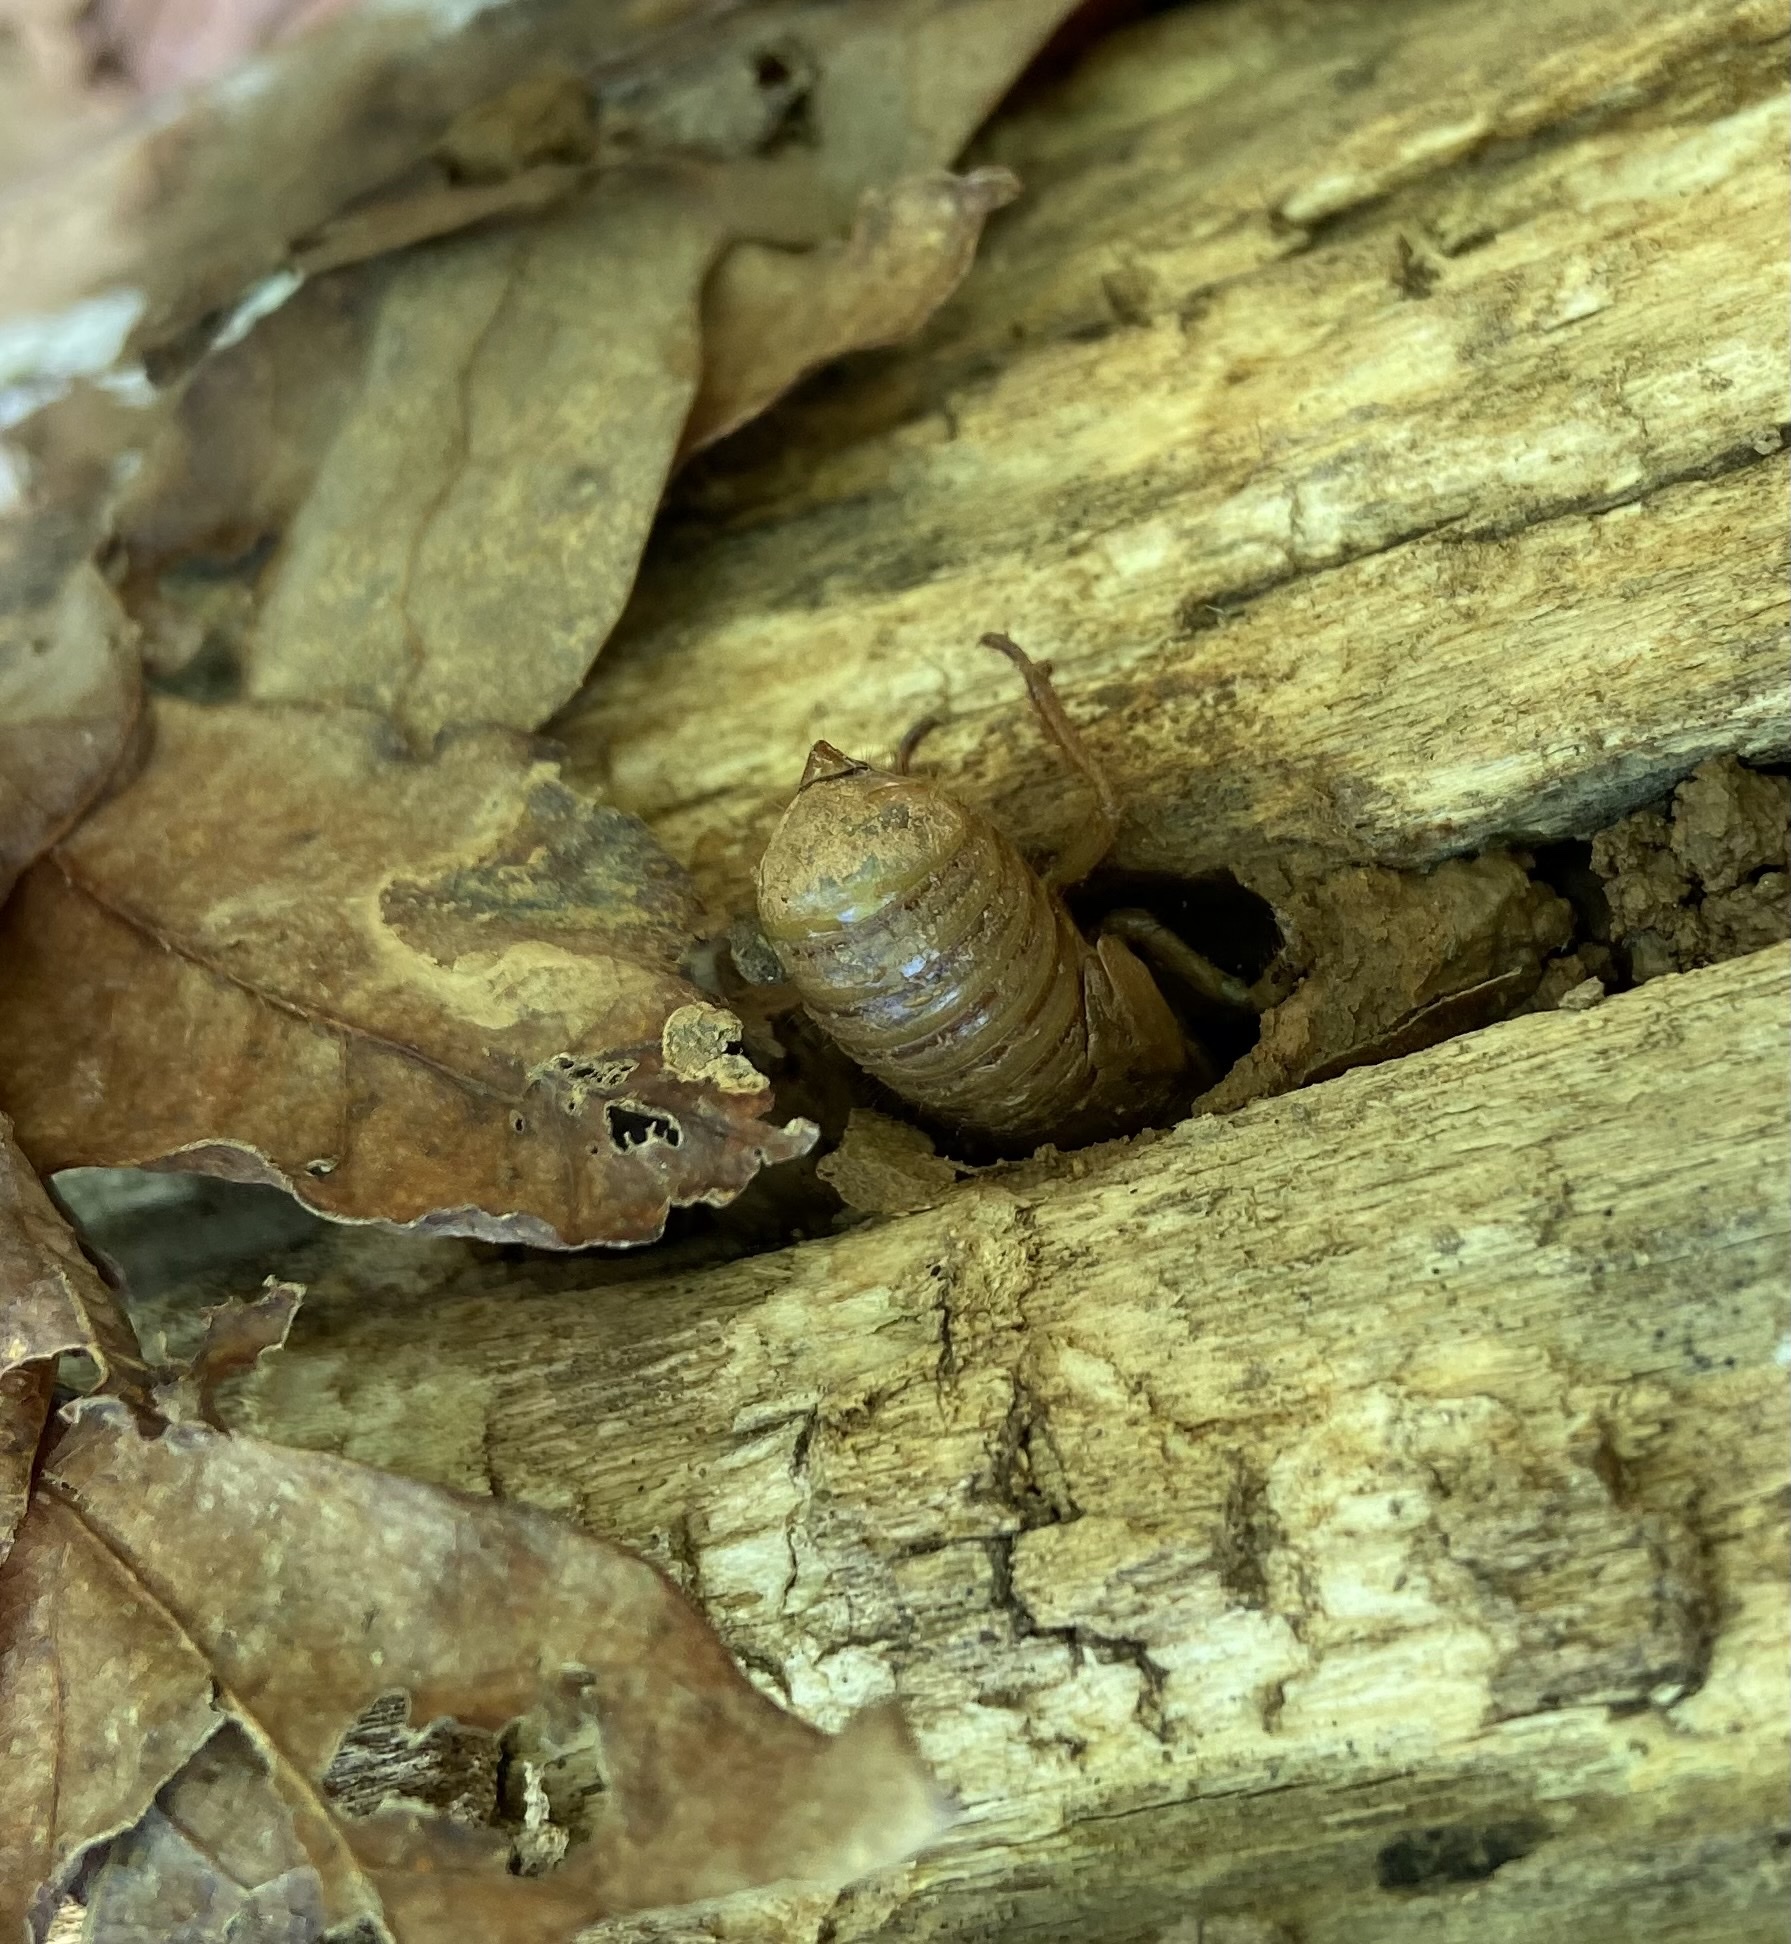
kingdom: Animalia
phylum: Arthropoda
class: Insecta
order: Hemiptera
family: Cicadidae
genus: Magicicada
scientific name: Magicicada
